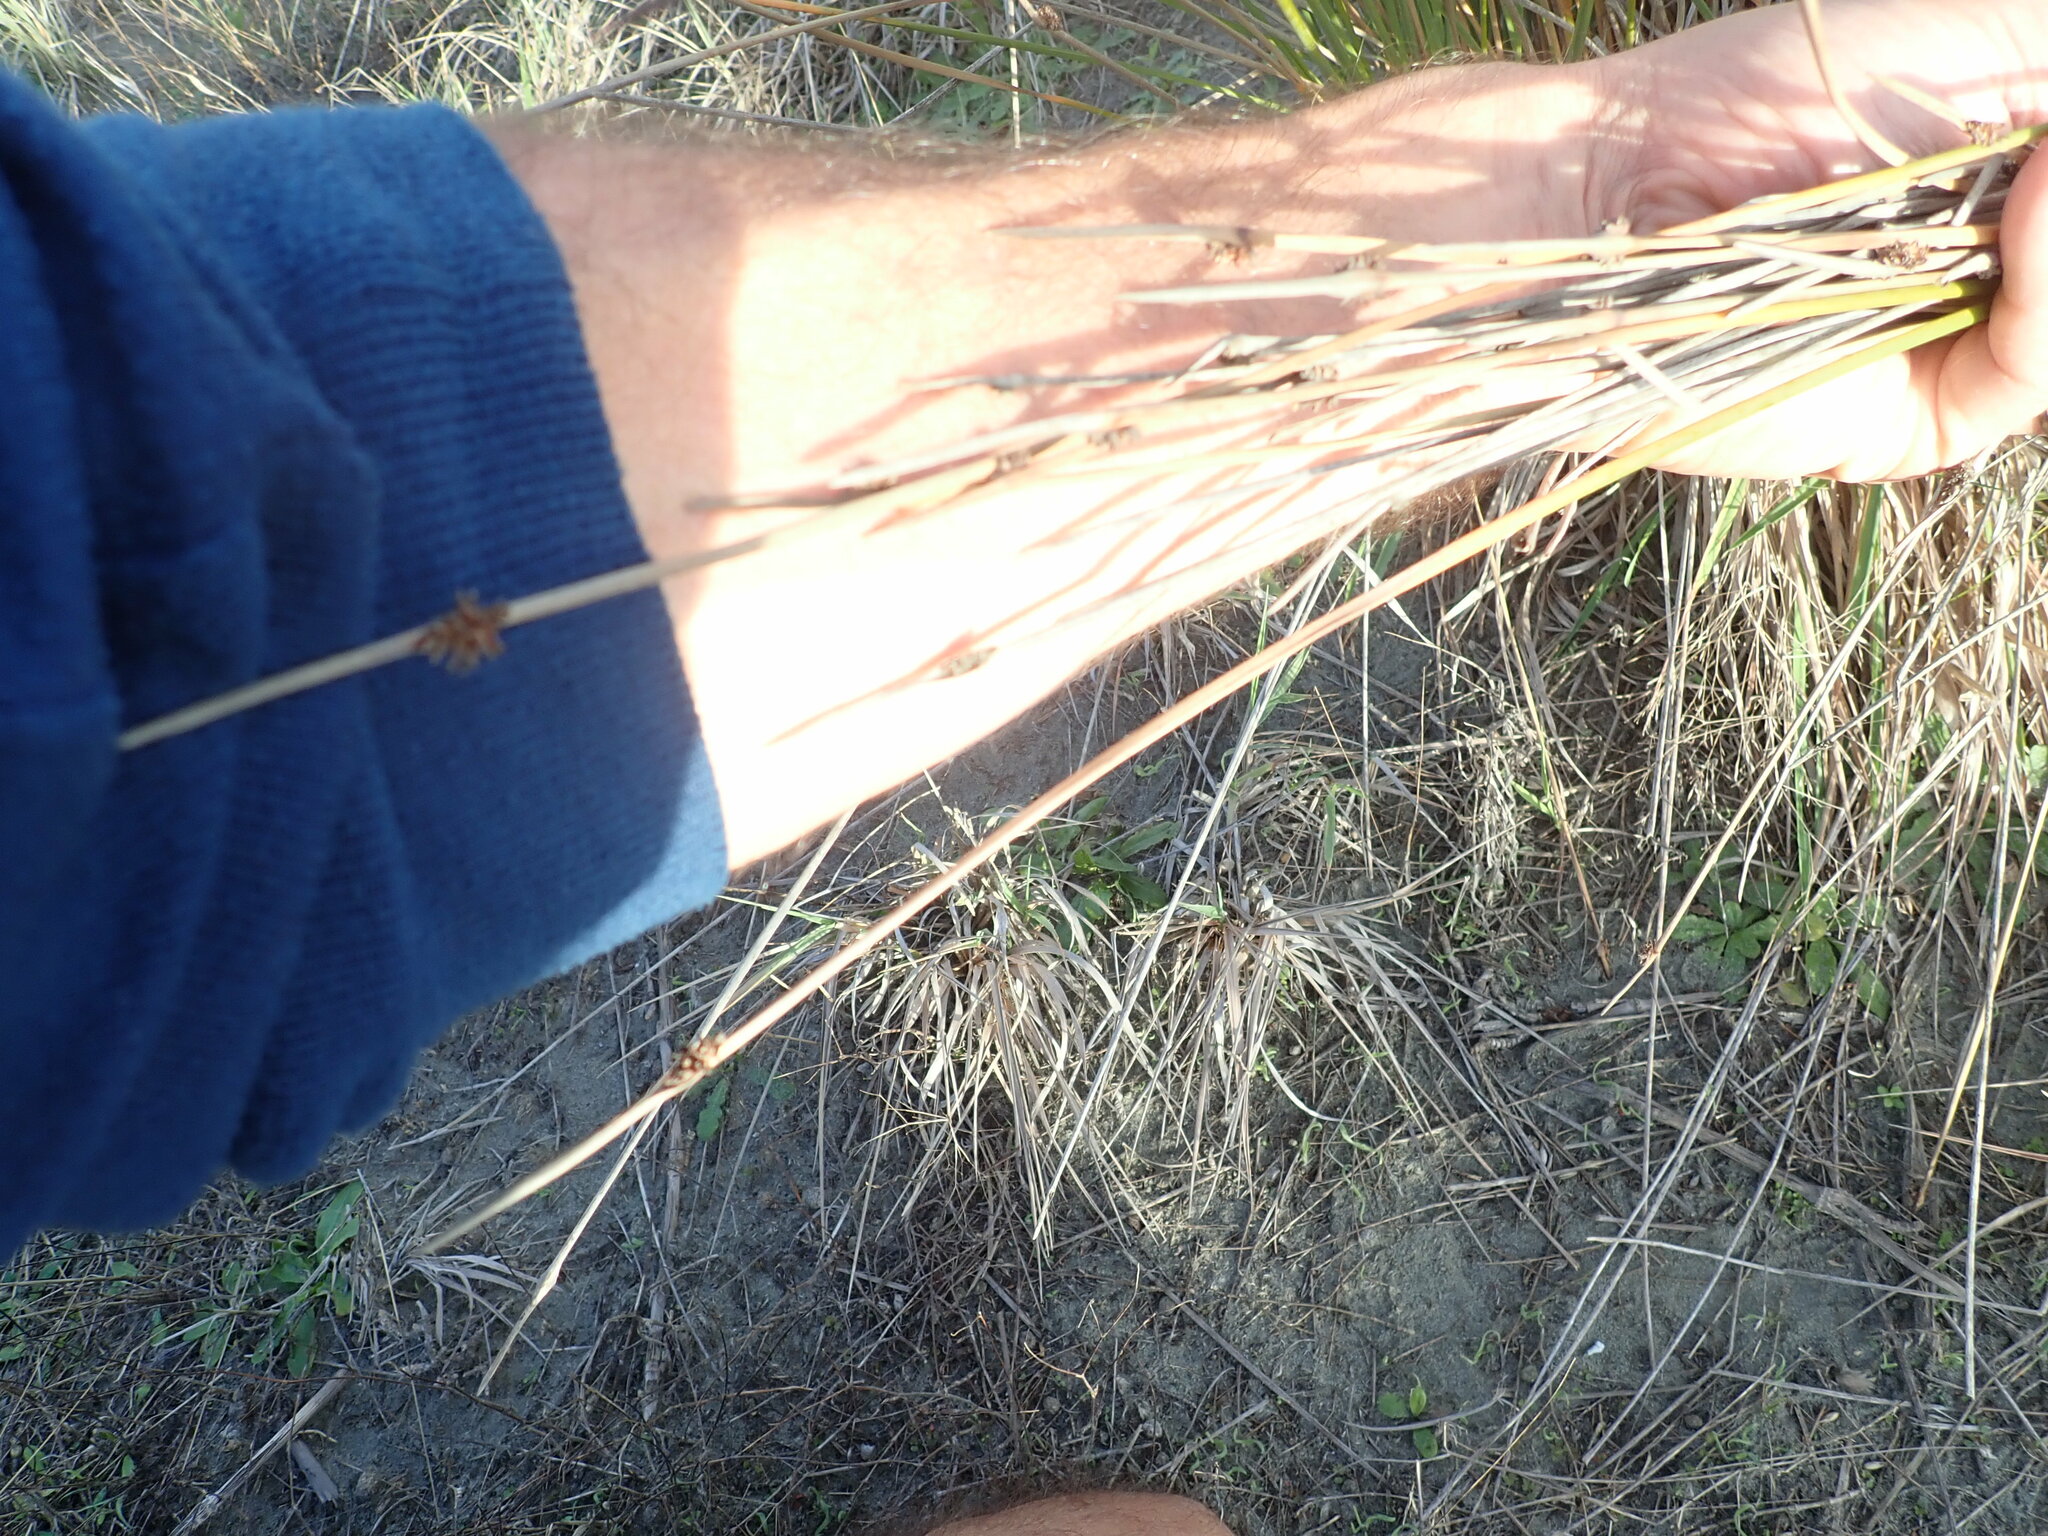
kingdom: Plantae
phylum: Tracheophyta
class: Liliopsida
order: Poales
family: Cyperaceae
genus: Ficinia
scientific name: Ficinia nodosa
